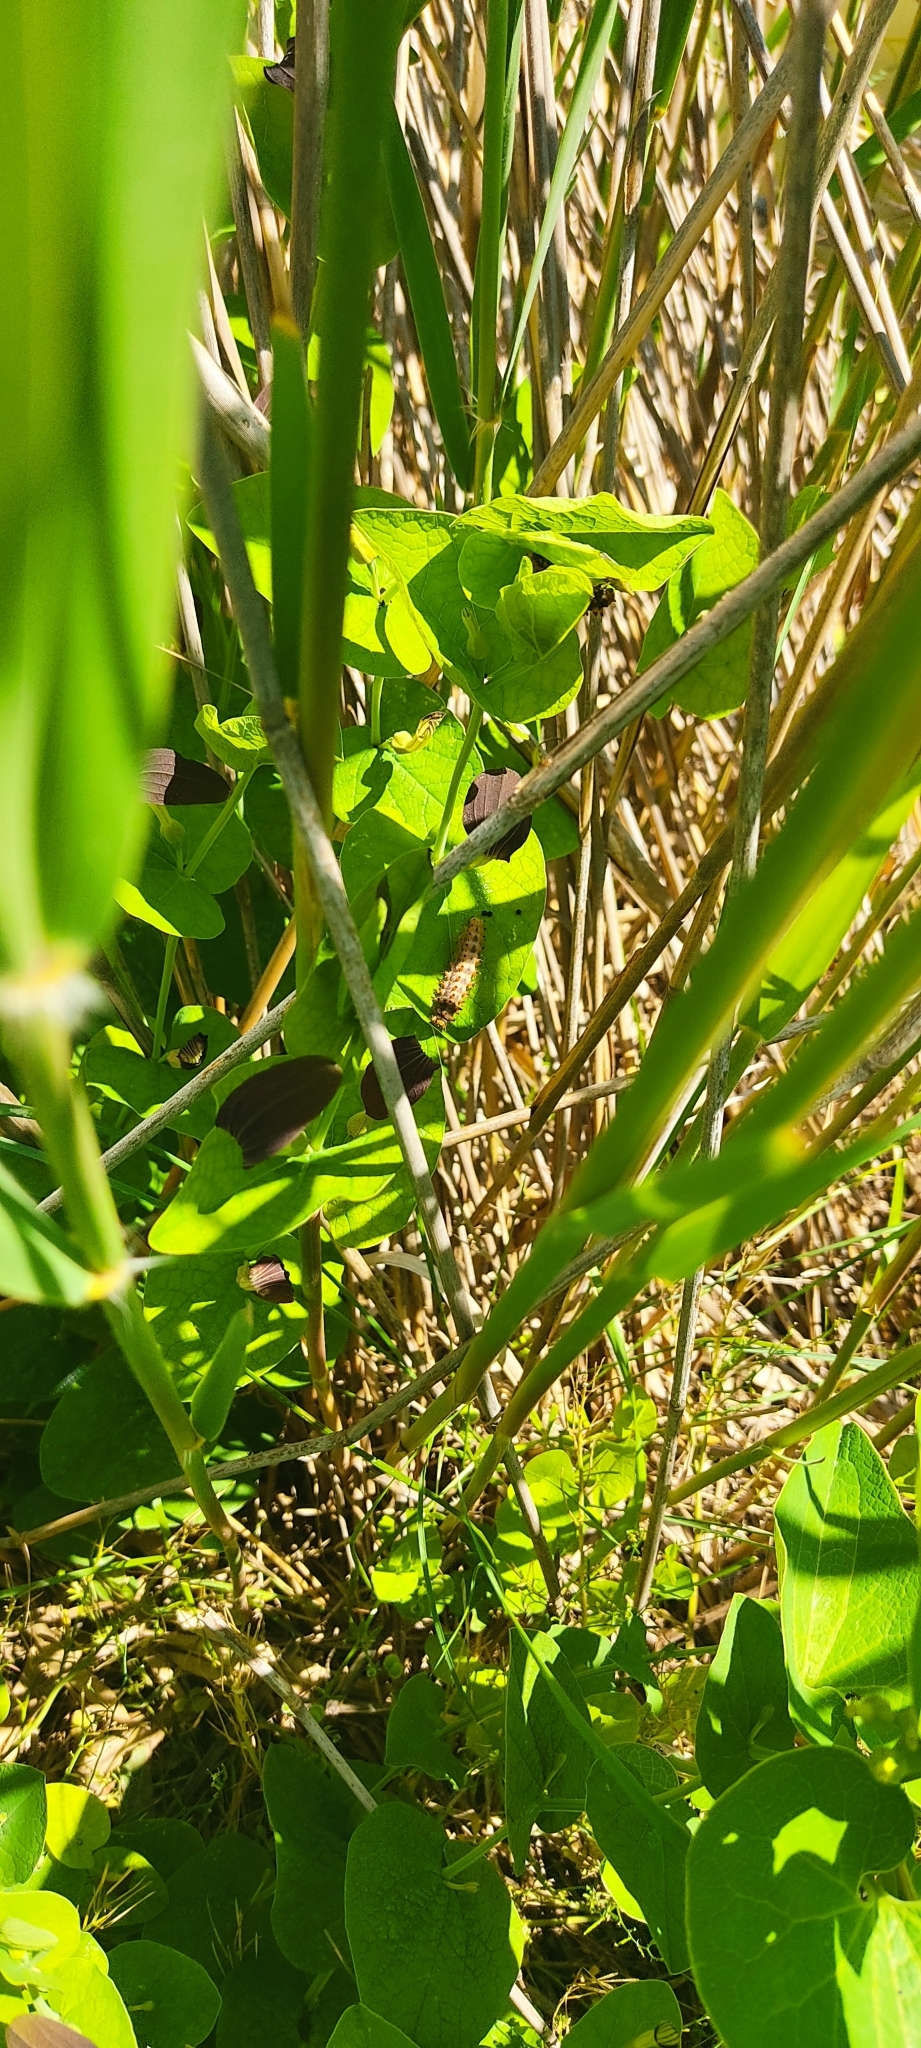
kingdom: Animalia
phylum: Arthropoda
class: Insecta
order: Lepidoptera
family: Papilionidae
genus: Zerynthia
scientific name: Zerynthia polyxena
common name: Southern festoon
